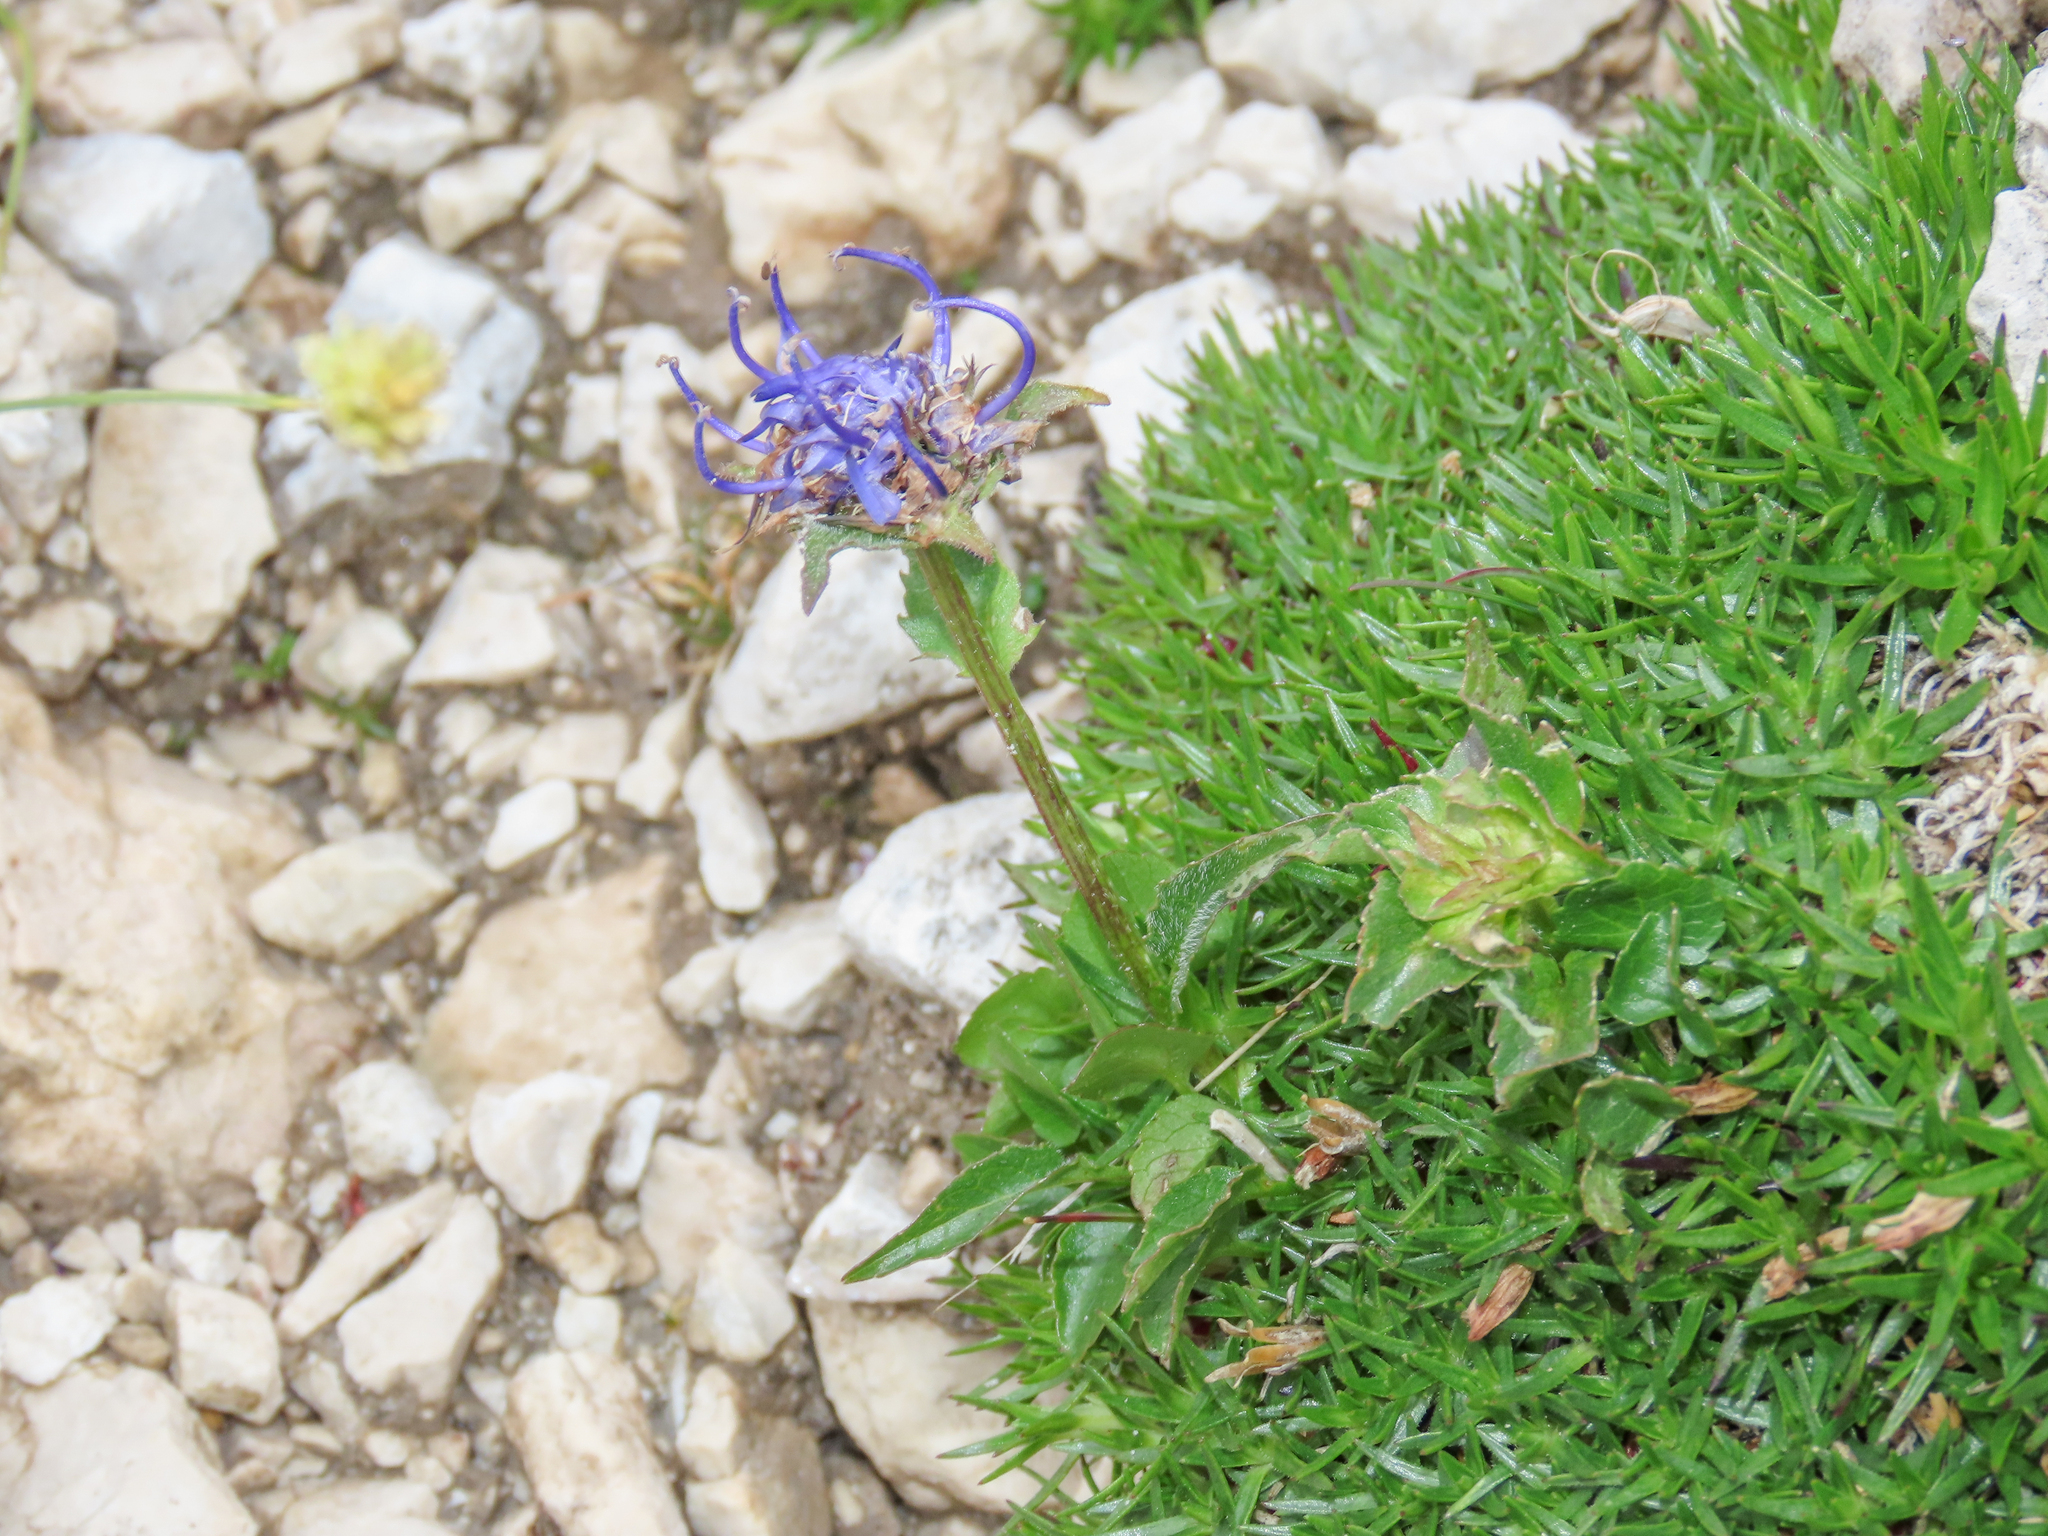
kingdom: Plantae
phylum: Tracheophyta
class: Magnoliopsida
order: Asterales
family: Campanulaceae
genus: Phyteuma
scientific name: Phyteuma sieberi
